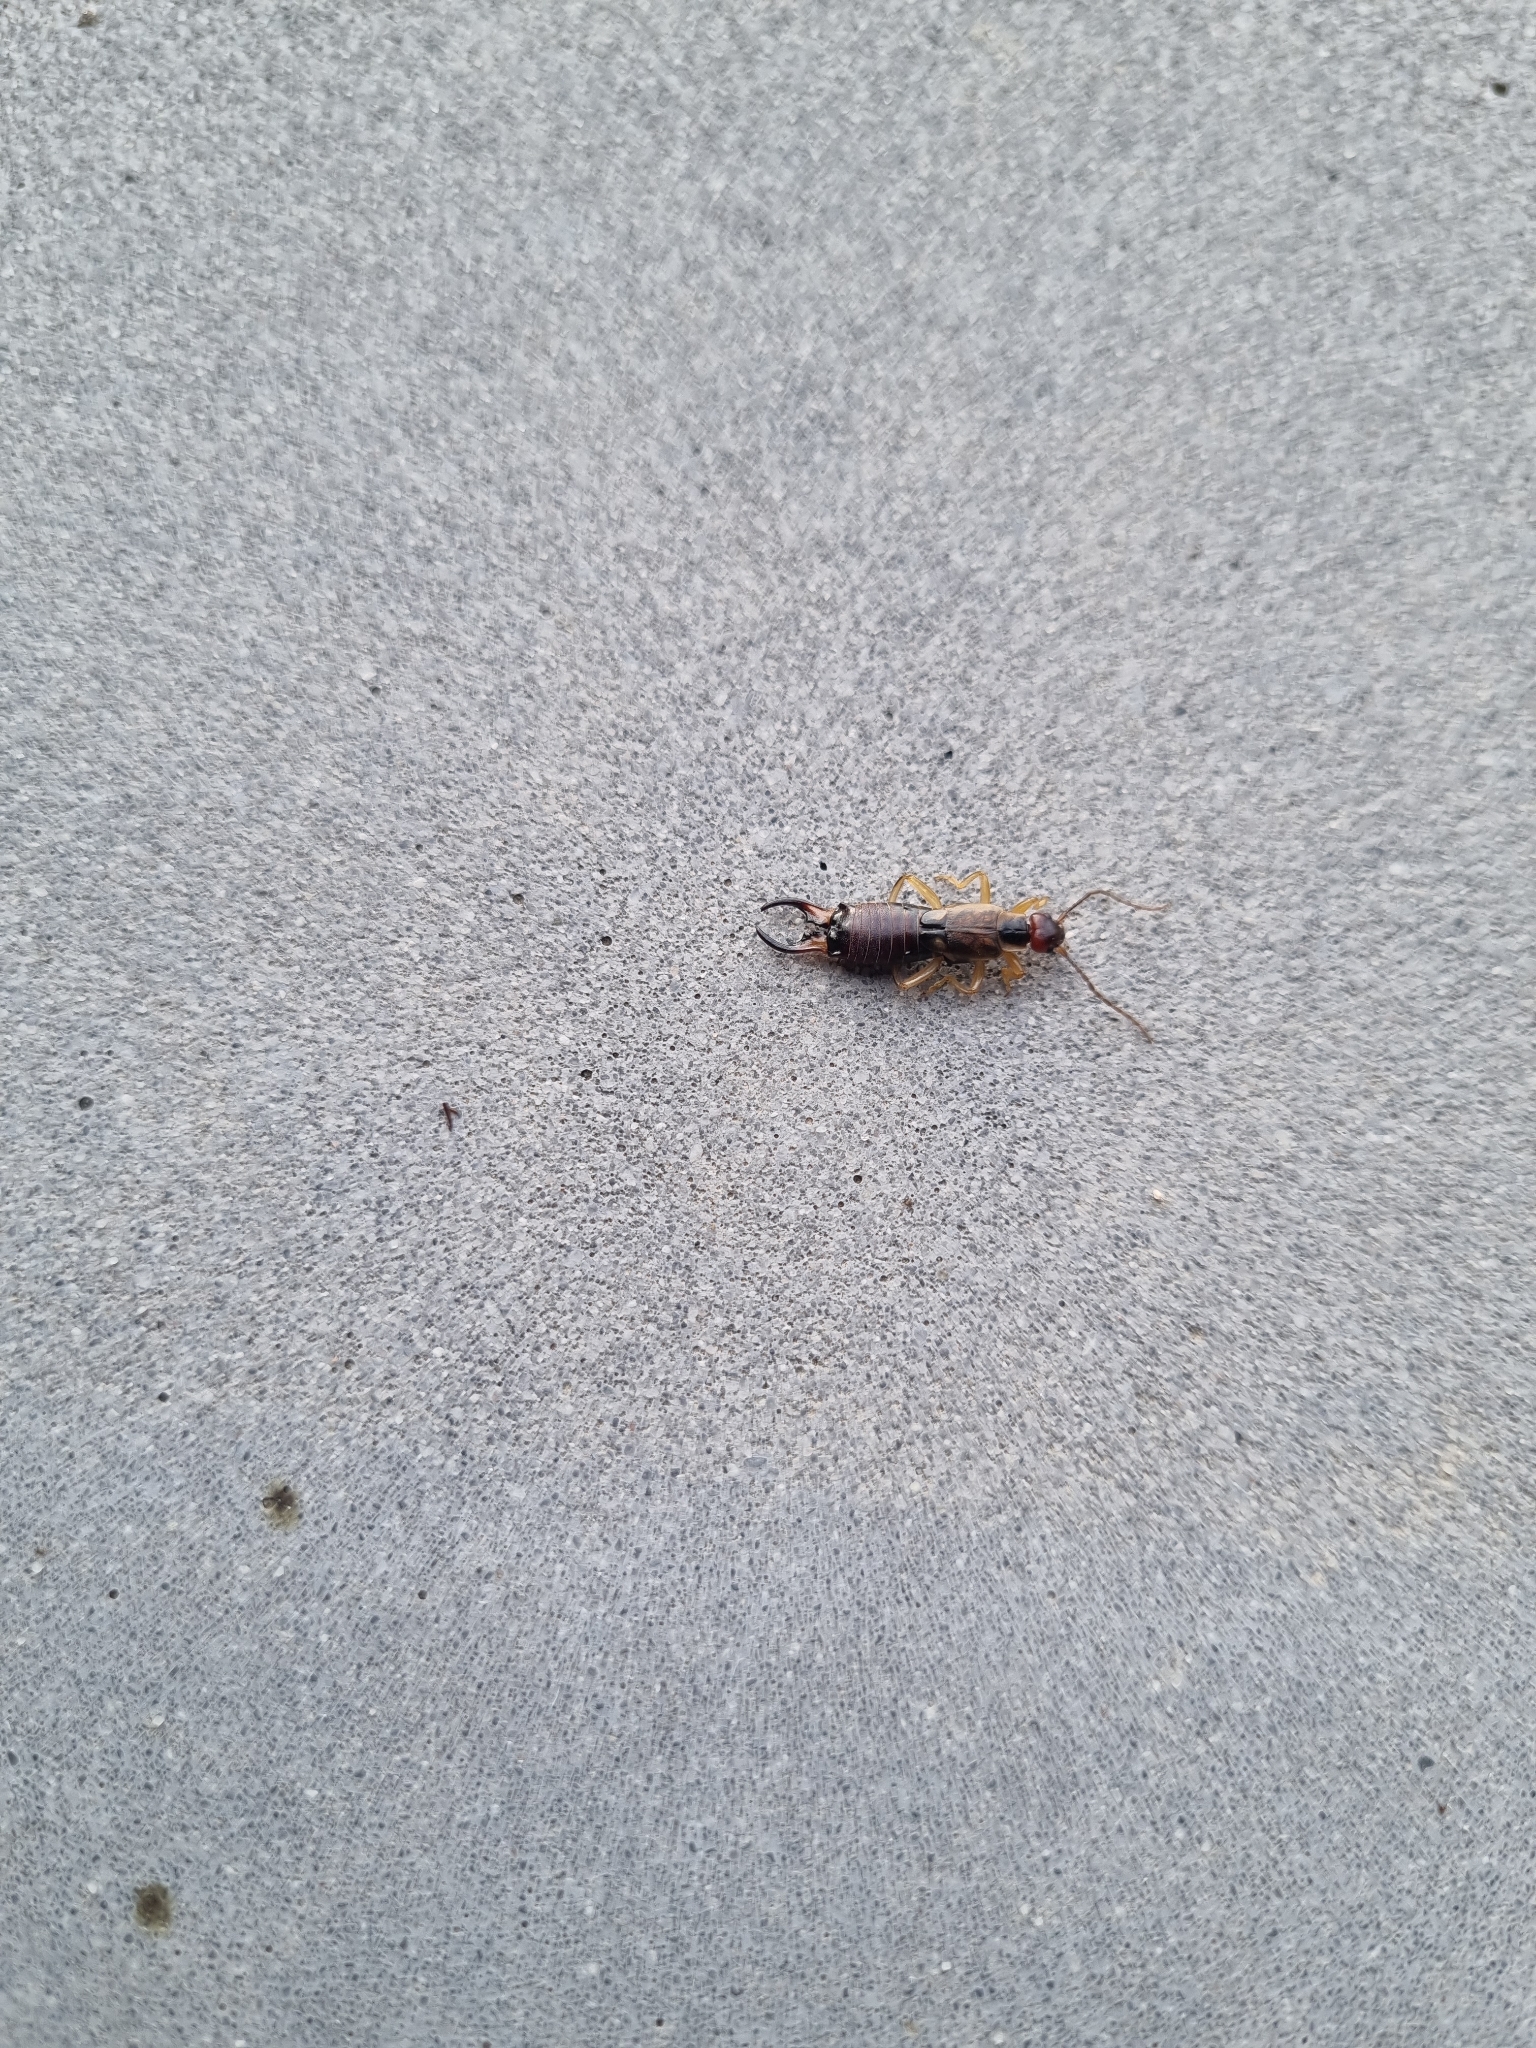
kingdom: Animalia
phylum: Arthropoda
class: Insecta
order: Dermaptera
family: Forficulidae
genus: Forficula
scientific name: Forficula
